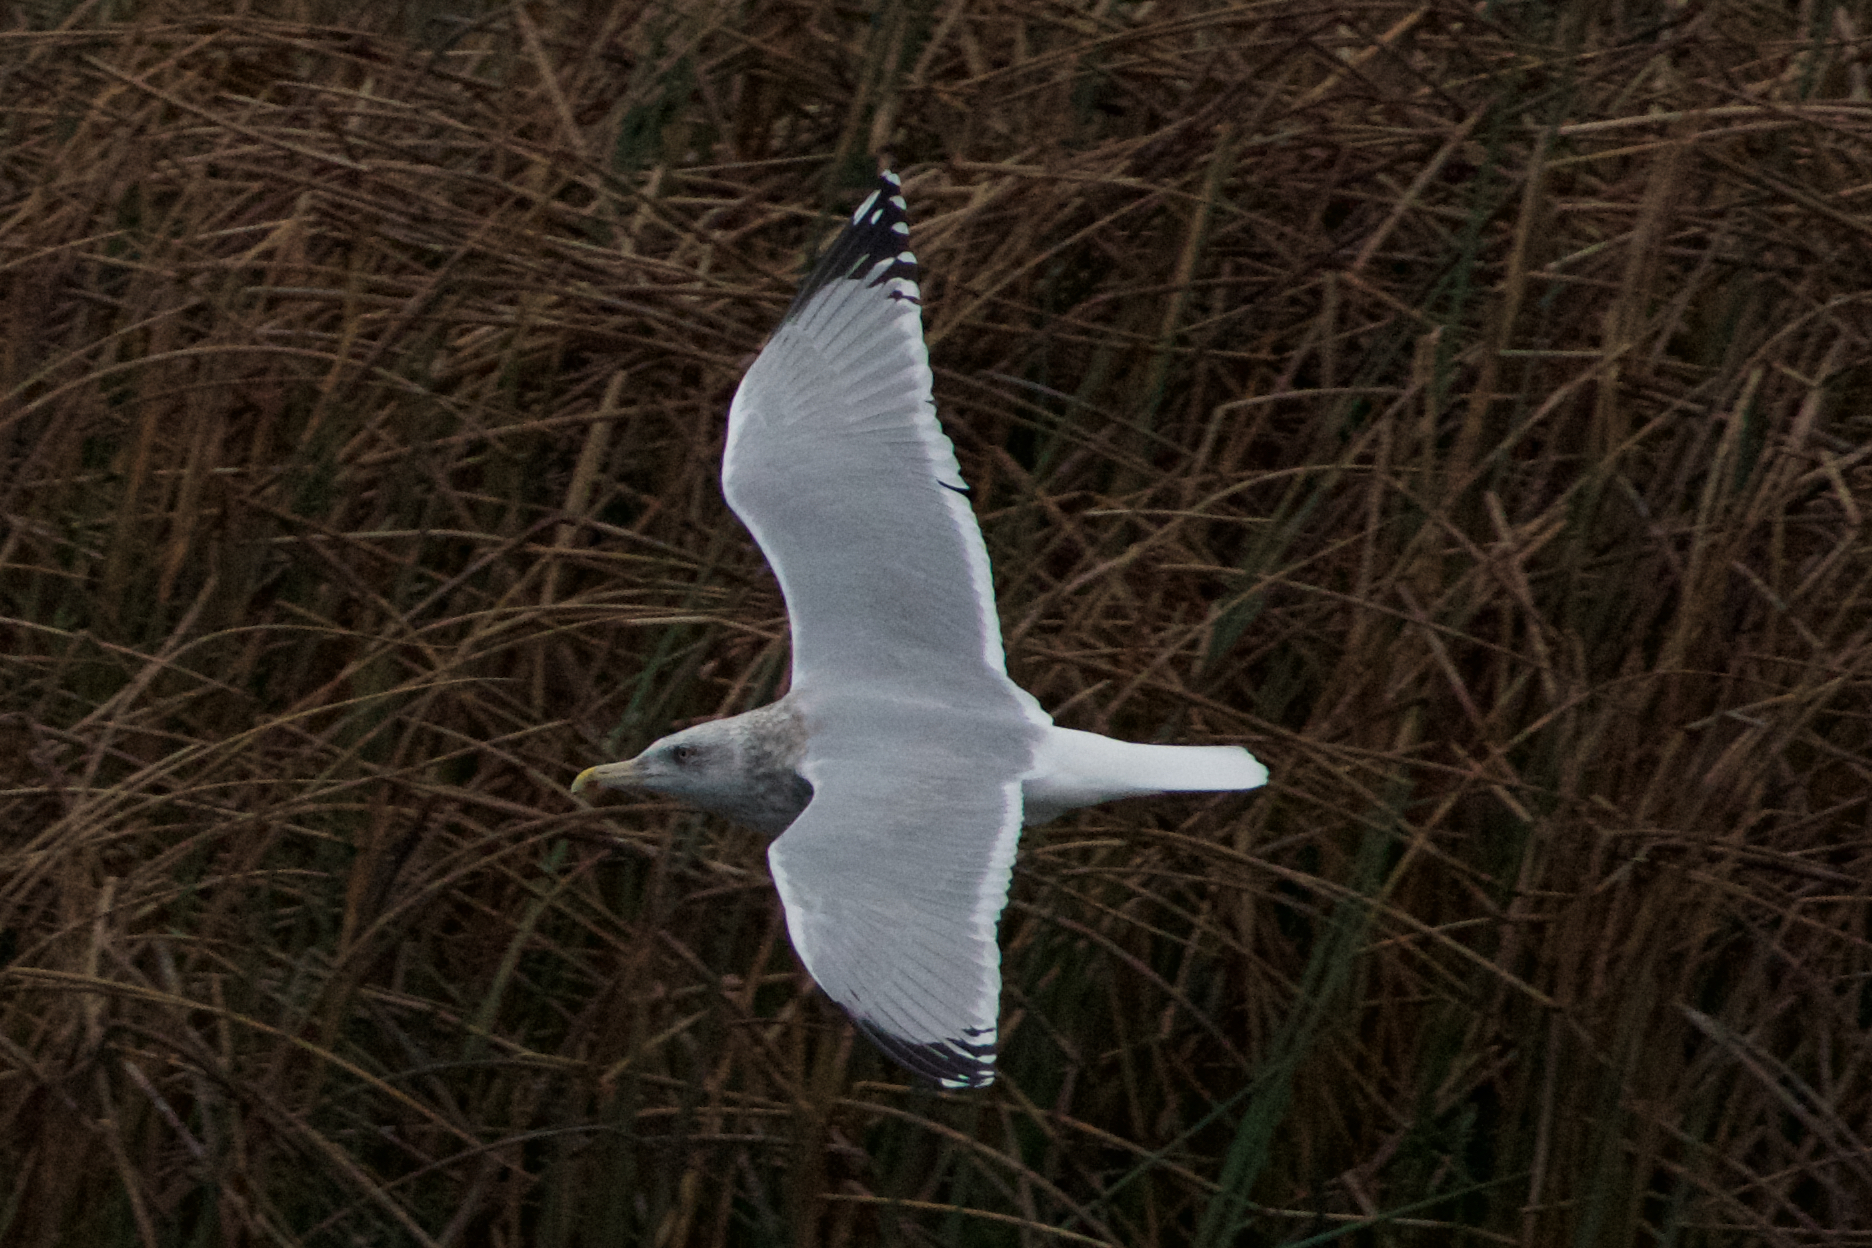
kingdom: Animalia
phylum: Chordata
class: Aves
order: Charadriiformes
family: Laridae
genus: Larus
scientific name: Larus argentatus
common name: Herring gull
